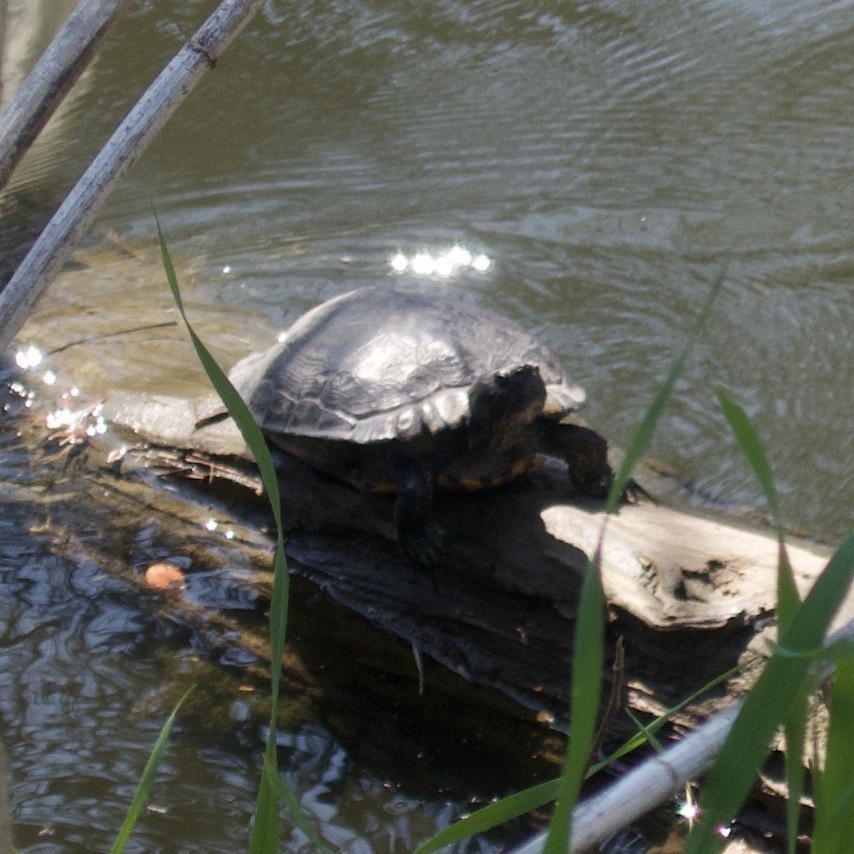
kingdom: Animalia
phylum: Chordata
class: Testudines
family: Emydidae
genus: Trachemys
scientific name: Trachemys scripta
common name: Slider
